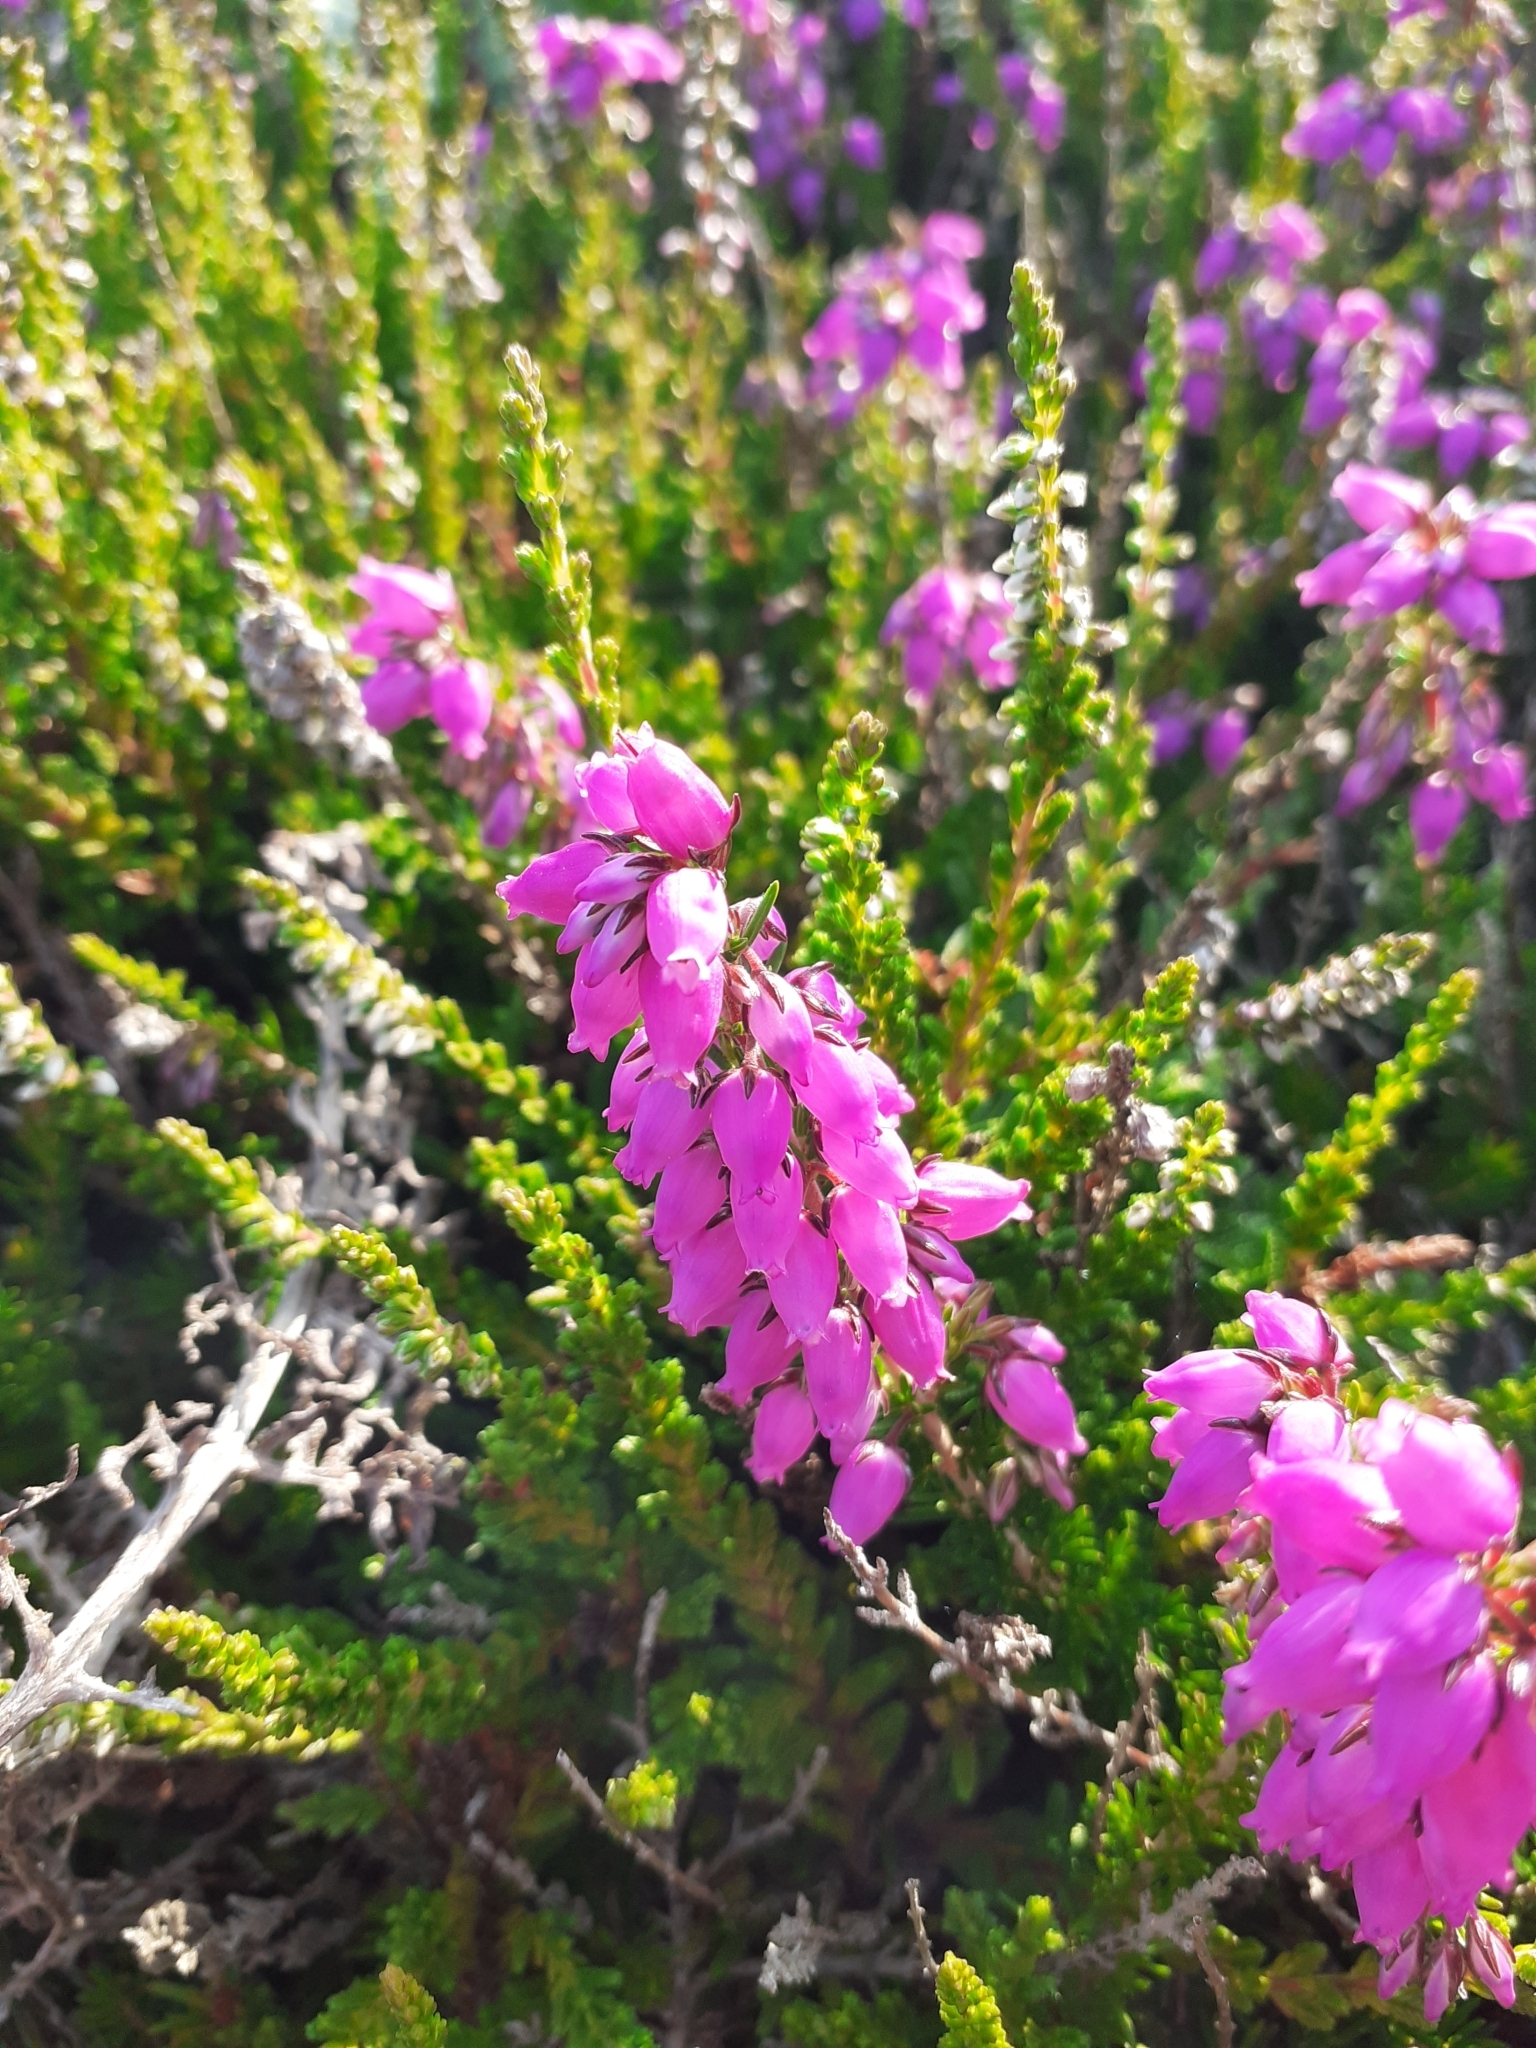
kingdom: Plantae
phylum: Tracheophyta
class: Magnoliopsida
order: Ericales
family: Ericaceae
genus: Erica
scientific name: Erica cinerea
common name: Bell heather
